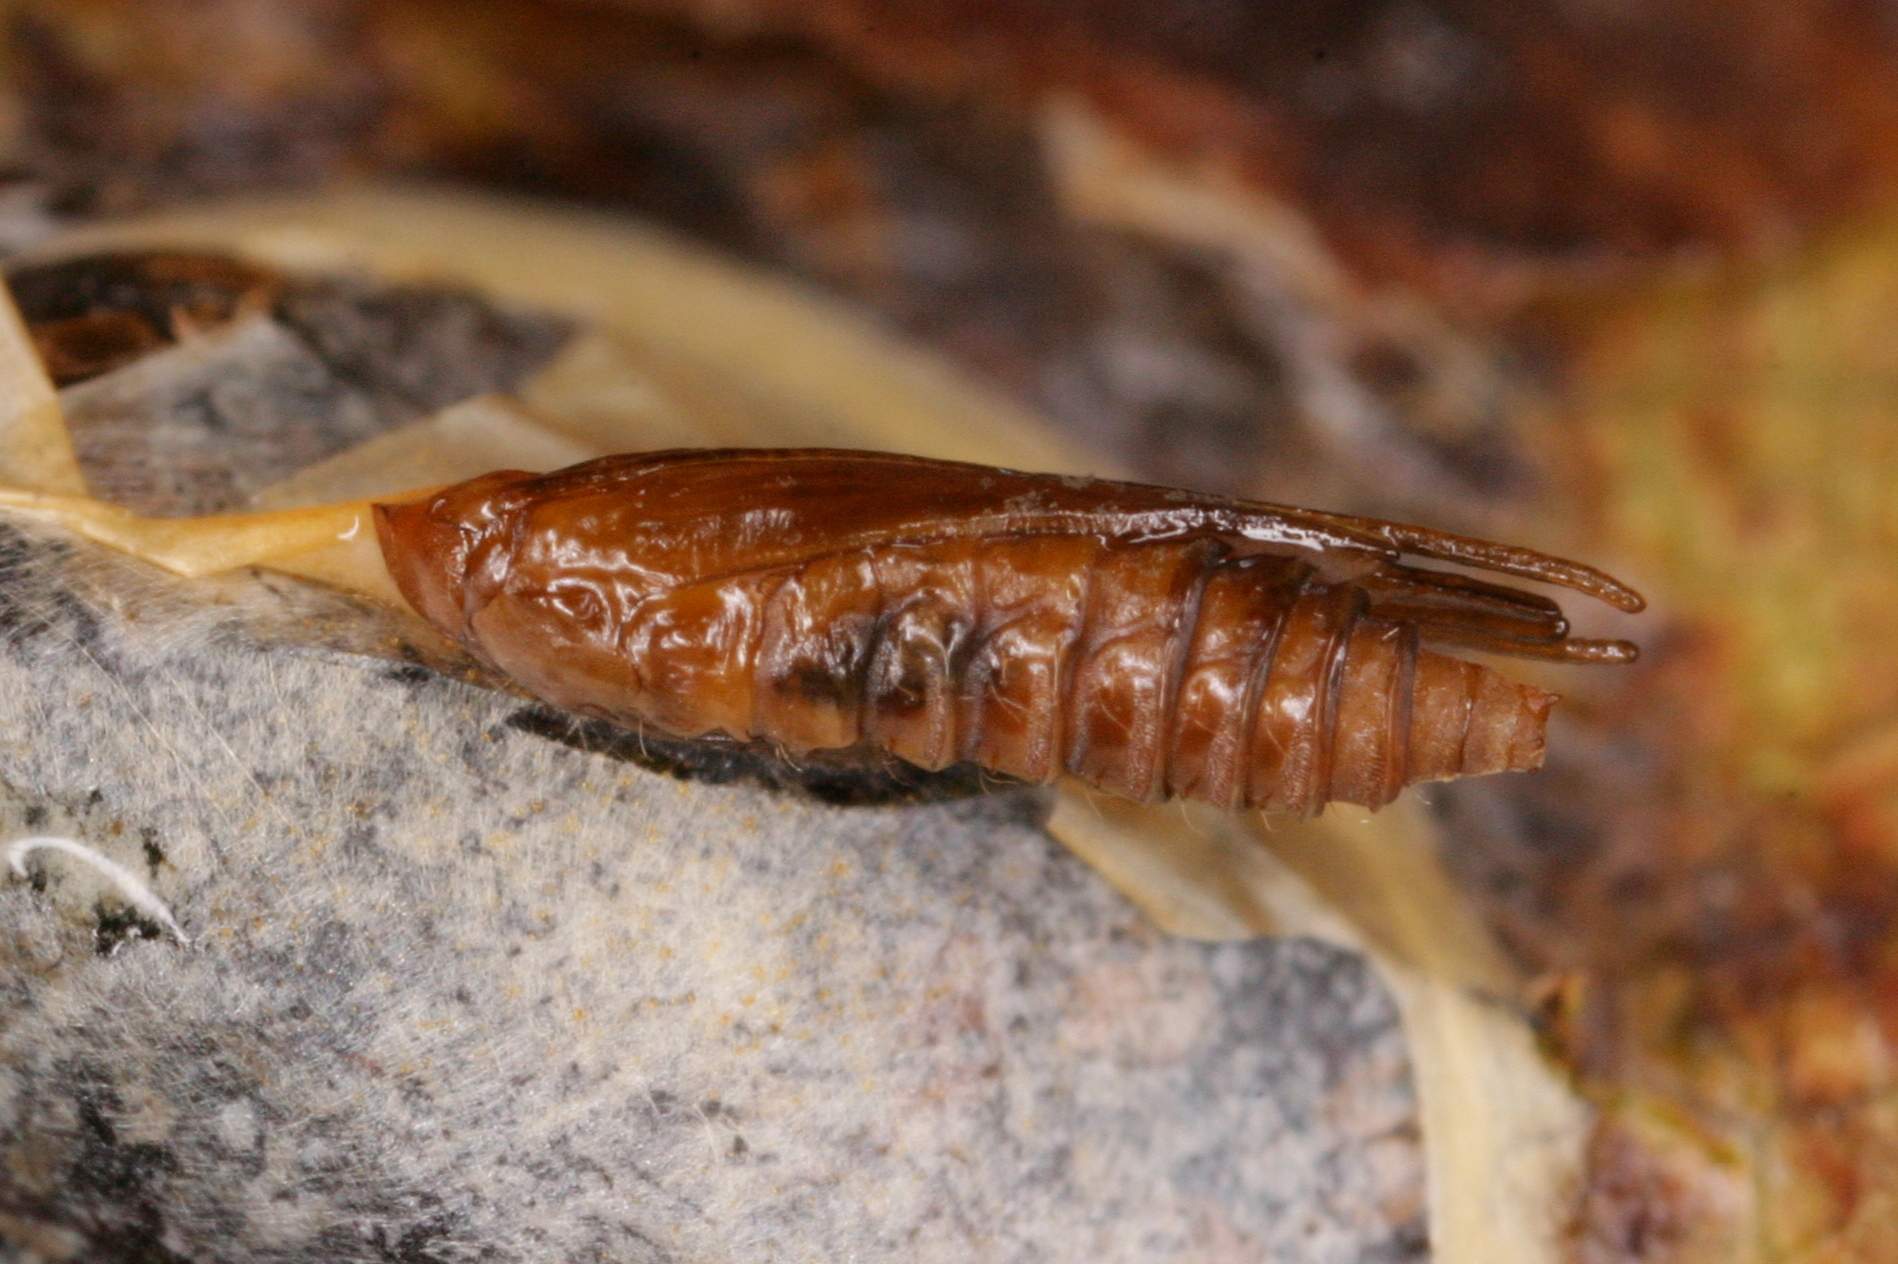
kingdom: Animalia
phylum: Arthropoda
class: Insecta
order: Lepidoptera
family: Gracillariidae
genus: Cameraria
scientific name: Cameraria ohridella
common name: Horse-chestnut leaf-miner
